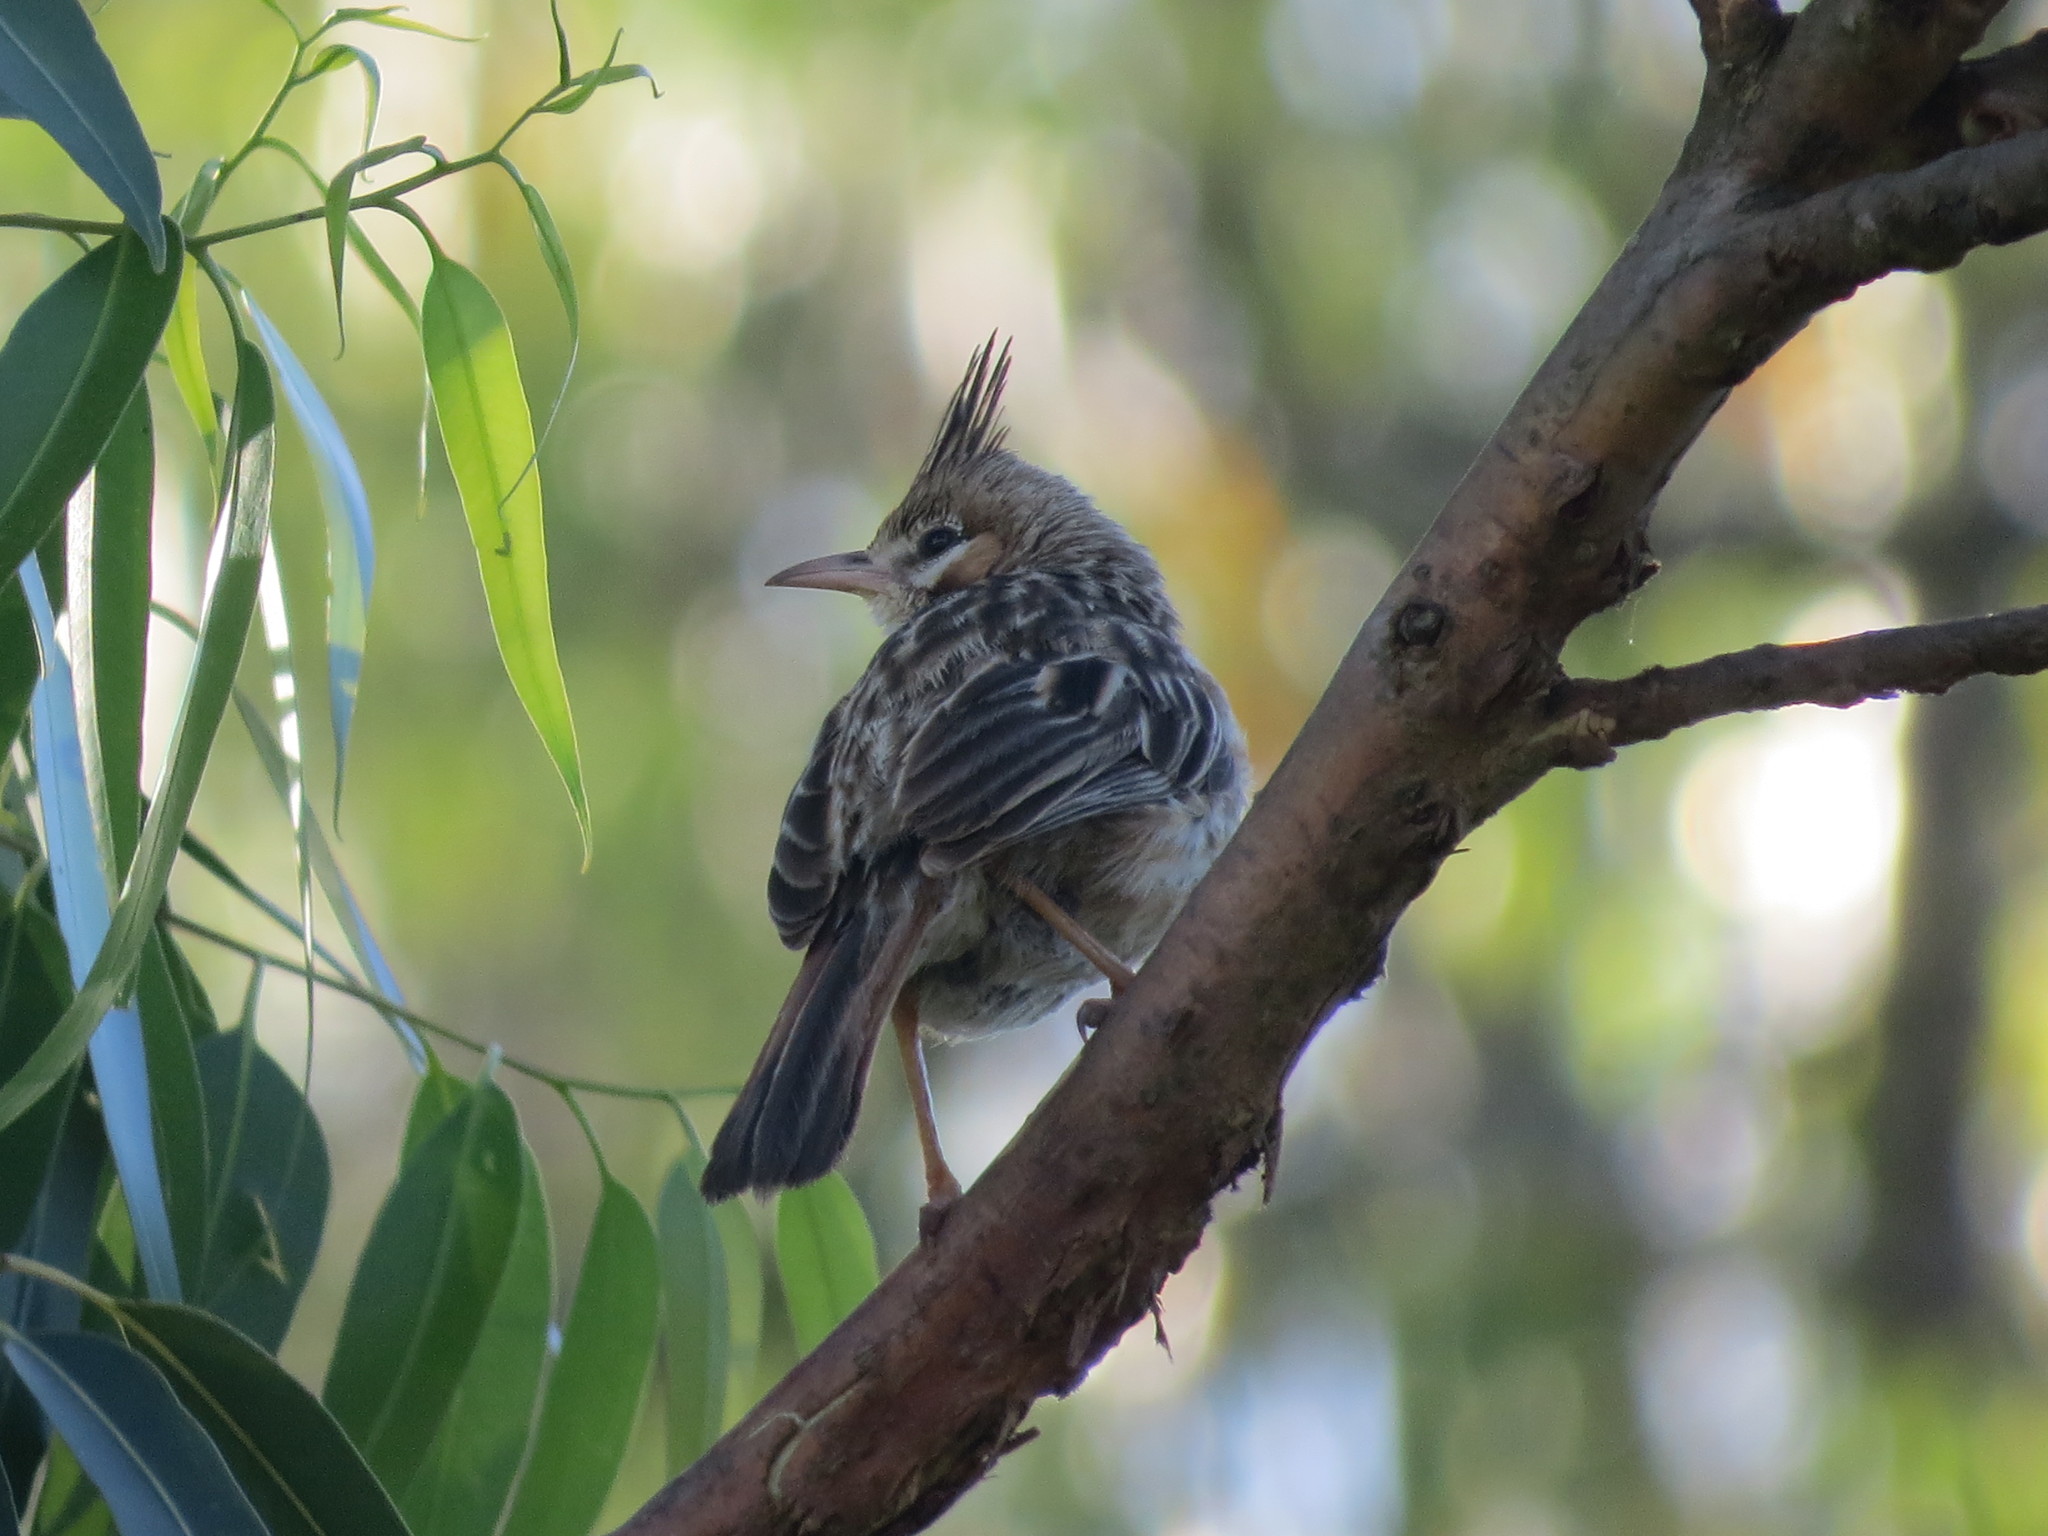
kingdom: Animalia
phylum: Chordata
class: Aves
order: Passeriformes
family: Furnariidae
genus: Coryphistera
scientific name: Coryphistera alaudina
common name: Lark-like brushrunner
